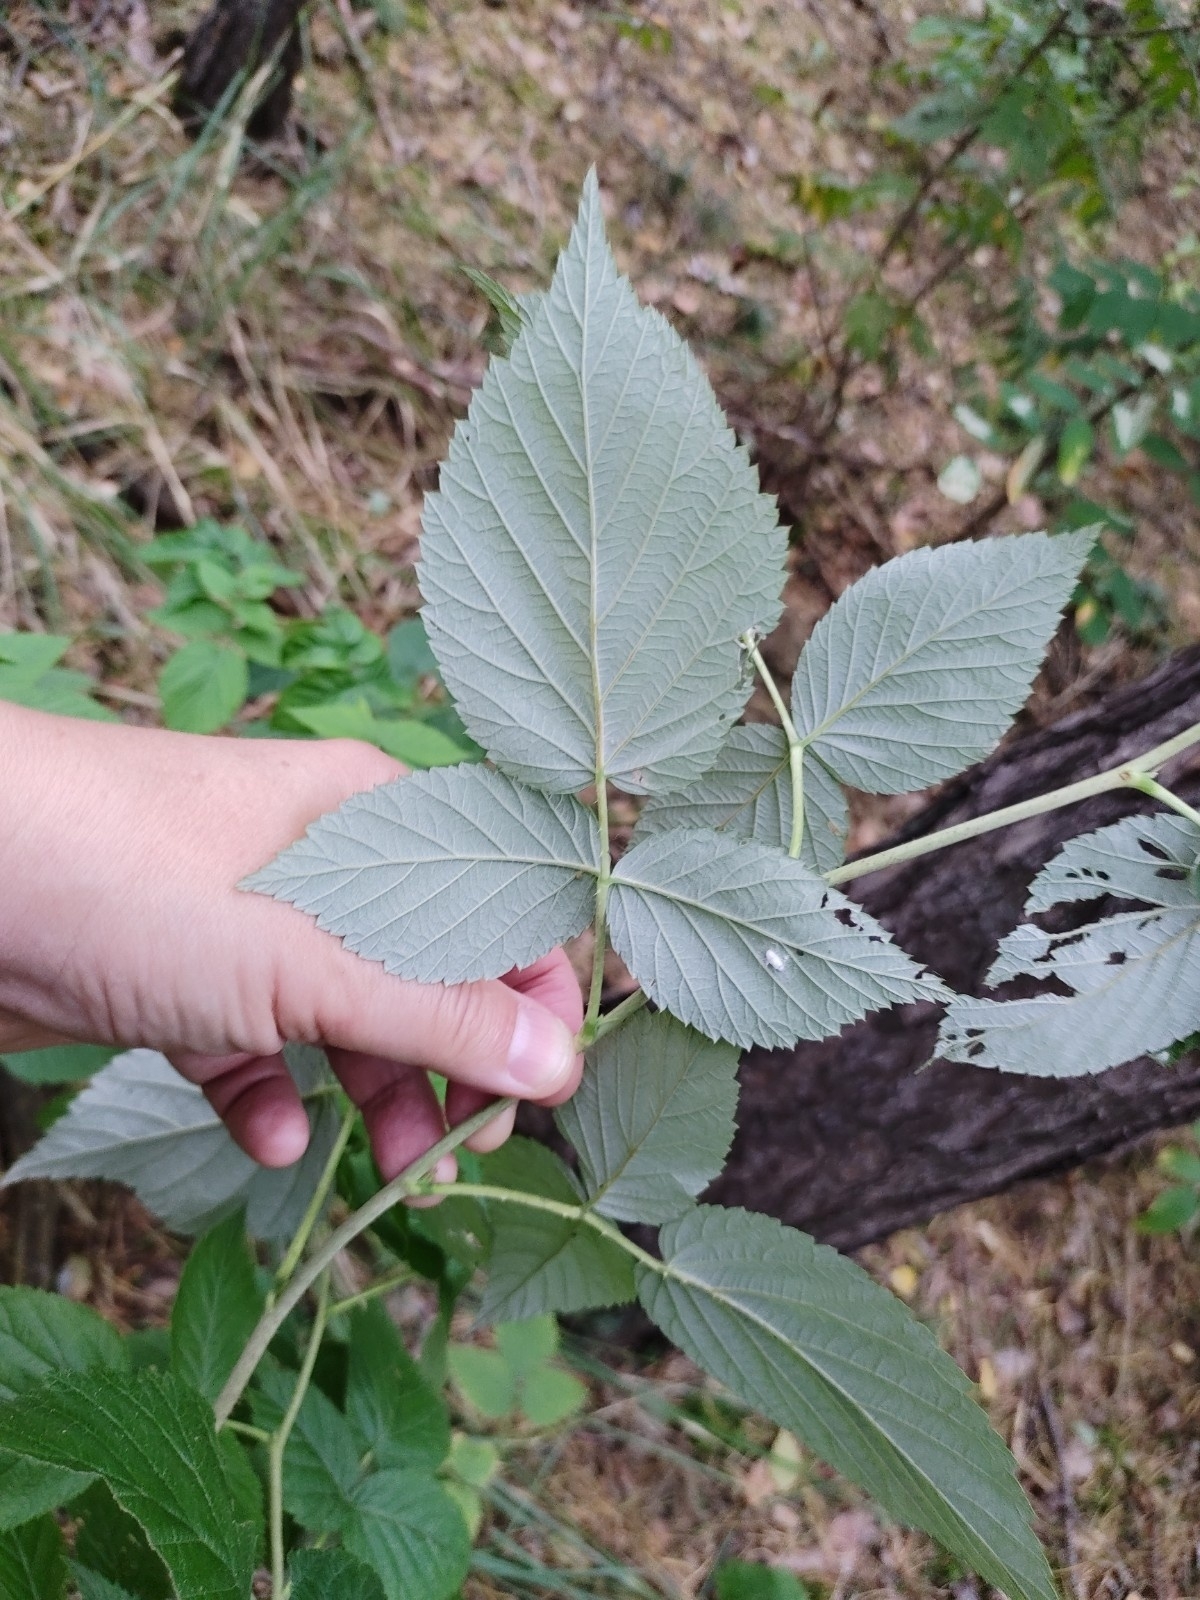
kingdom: Plantae
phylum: Tracheophyta
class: Magnoliopsida
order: Rosales
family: Rosaceae
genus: Rubus
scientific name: Rubus idaeus
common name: Raspberry
